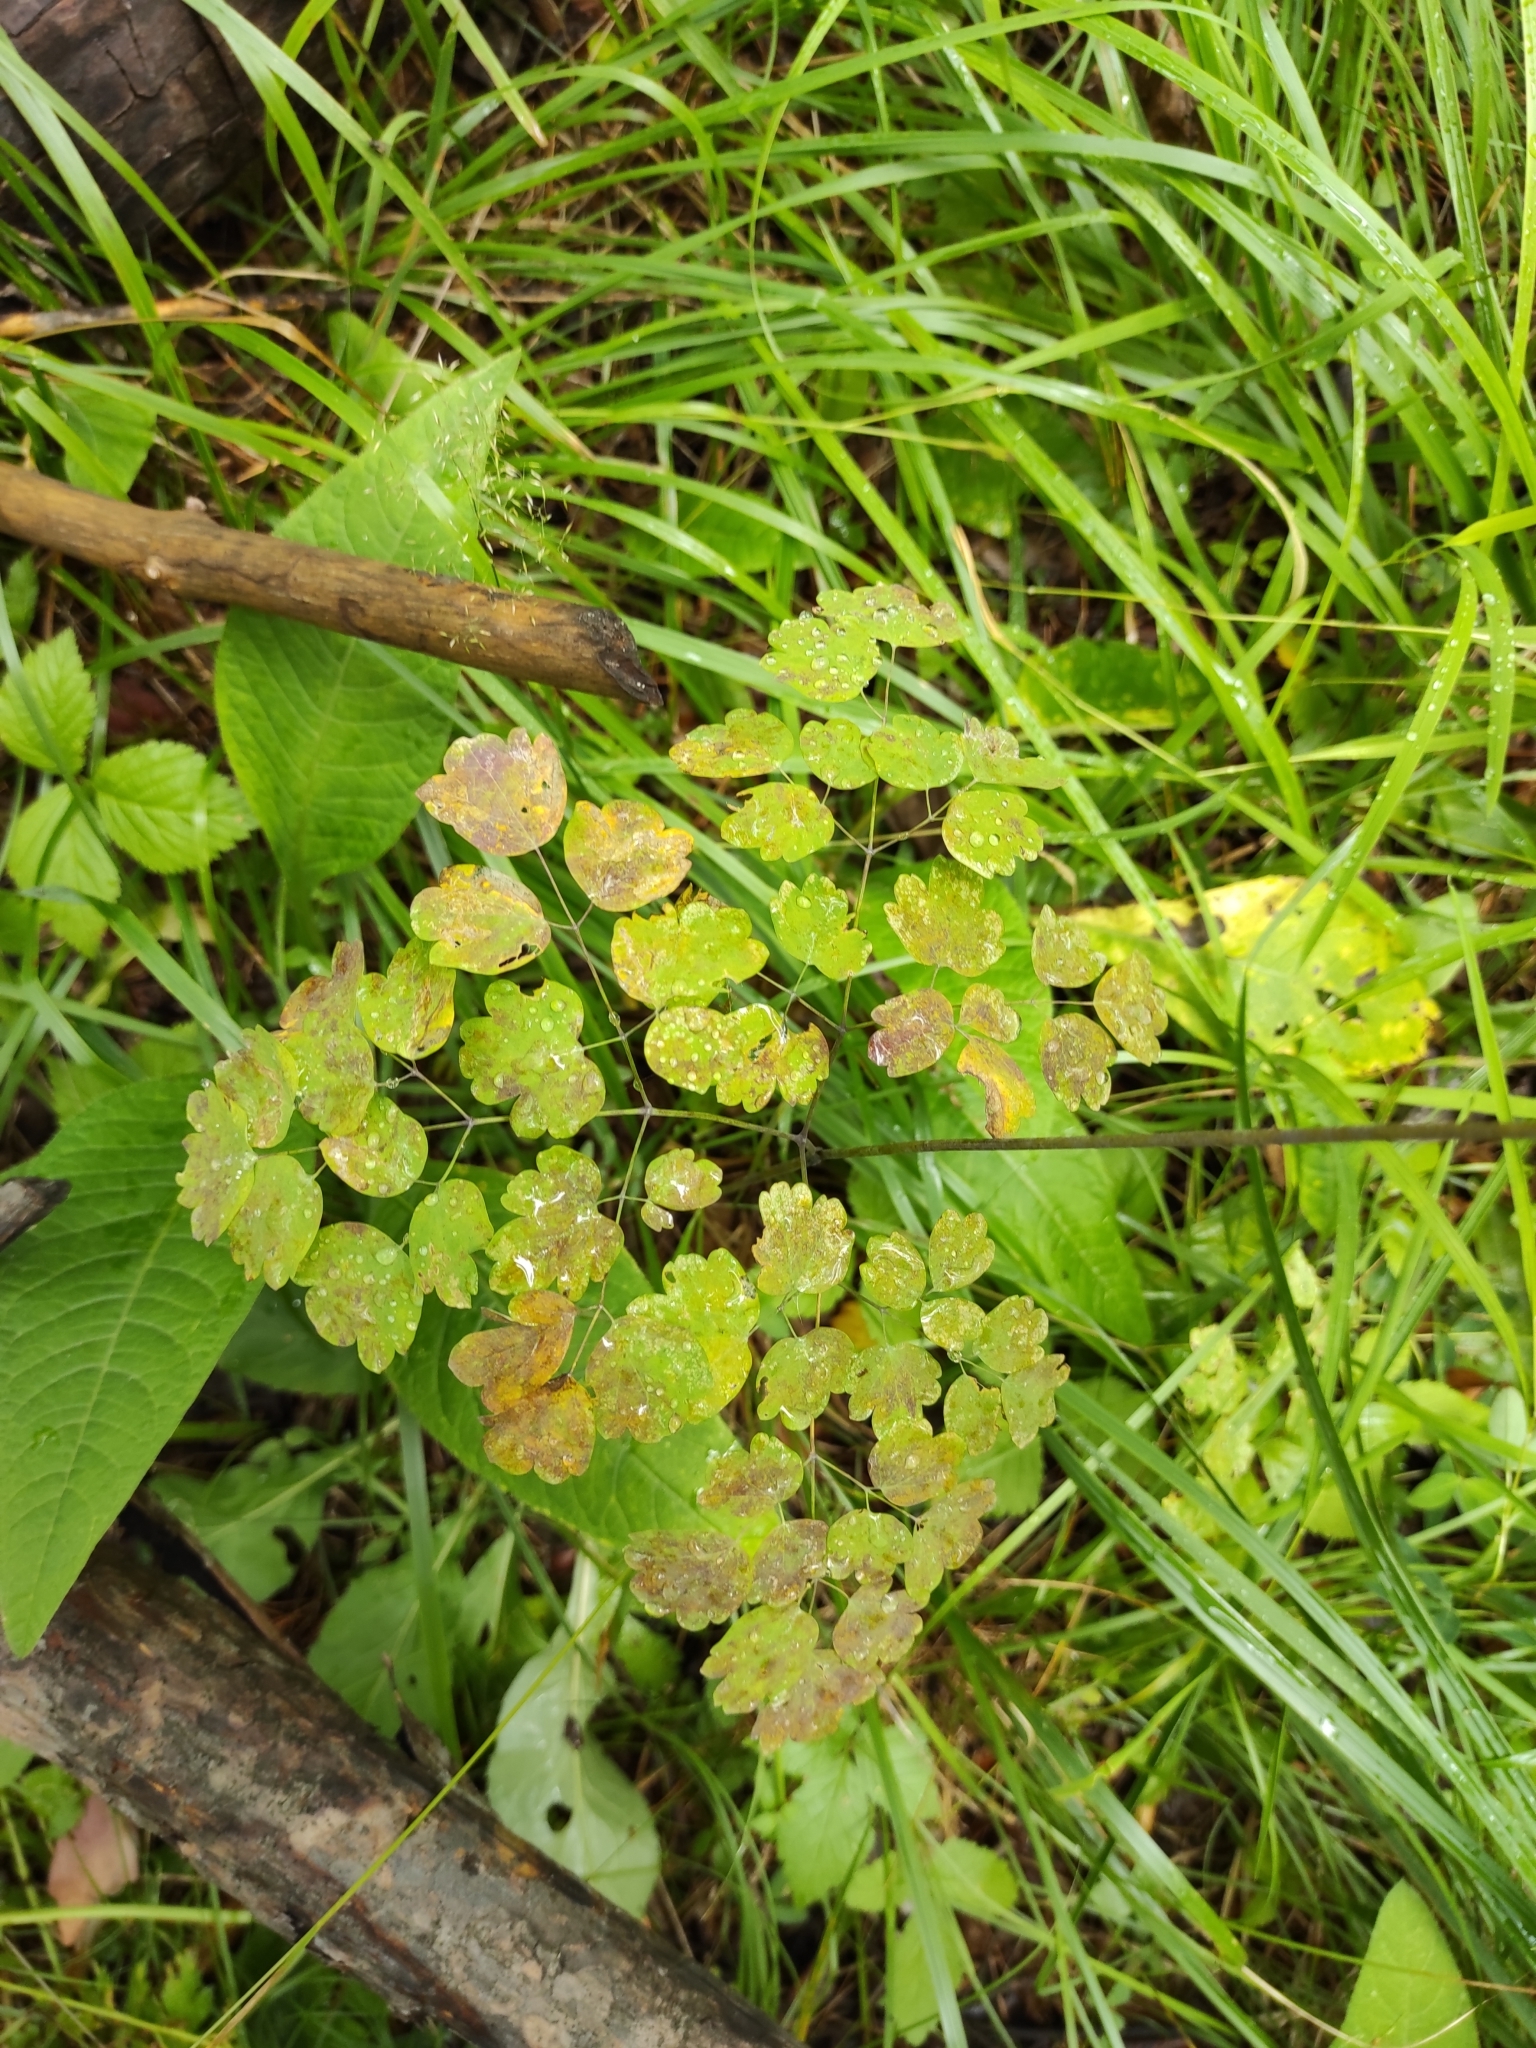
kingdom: Plantae
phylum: Tracheophyta
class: Magnoliopsida
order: Ranunculales
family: Ranunculaceae
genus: Thalictrum
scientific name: Thalictrum minus
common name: Lesser meadow-rue
